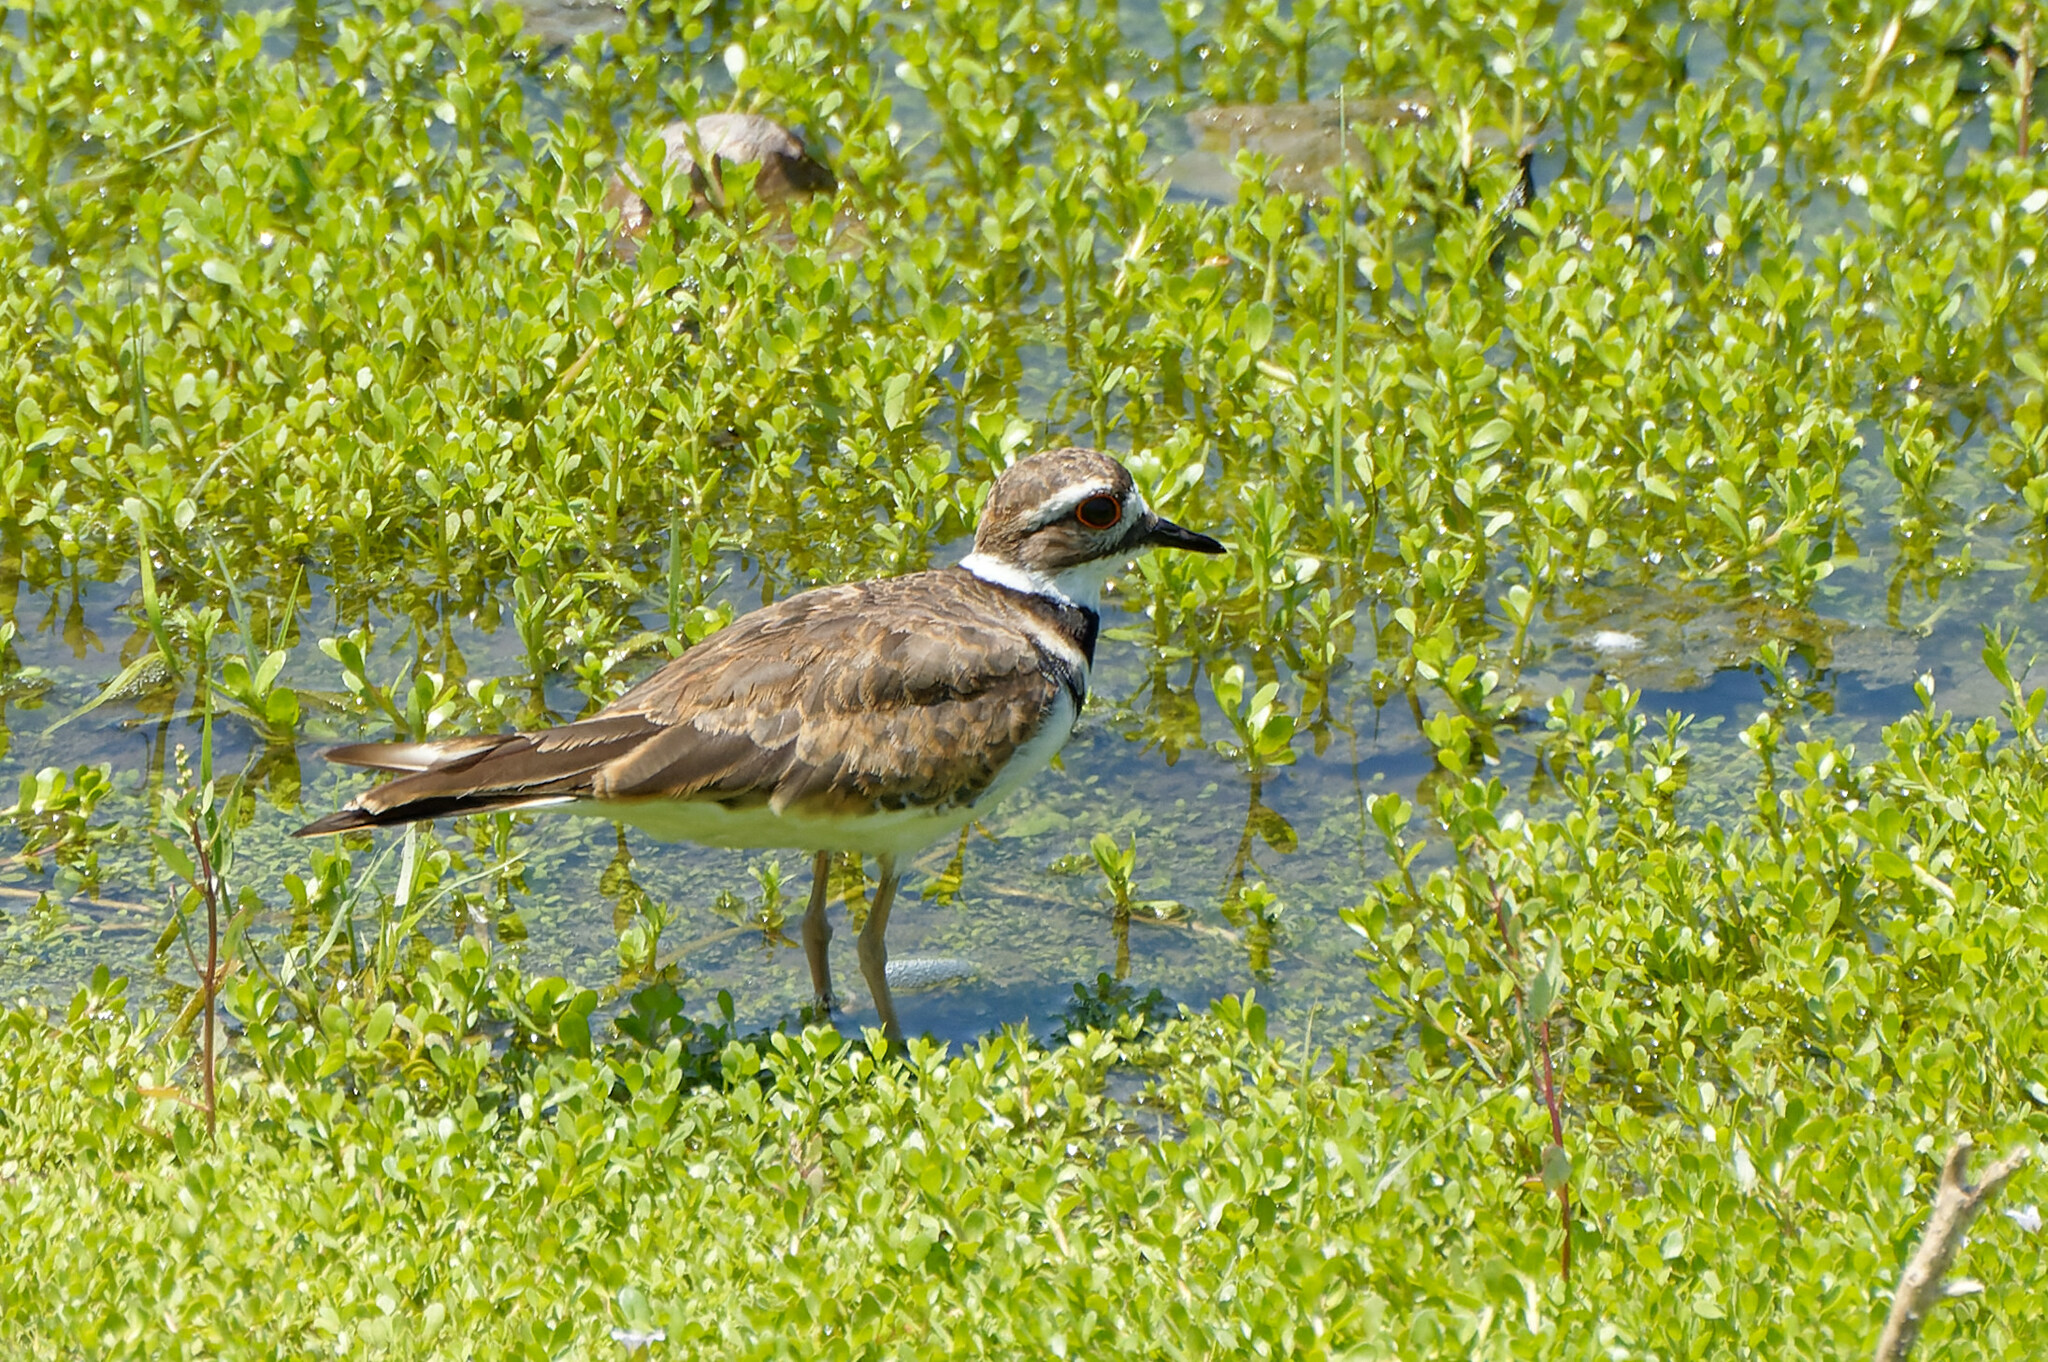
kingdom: Animalia
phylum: Chordata
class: Aves
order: Charadriiformes
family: Charadriidae
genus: Charadrius
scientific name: Charadrius vociferus
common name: Killdeer
